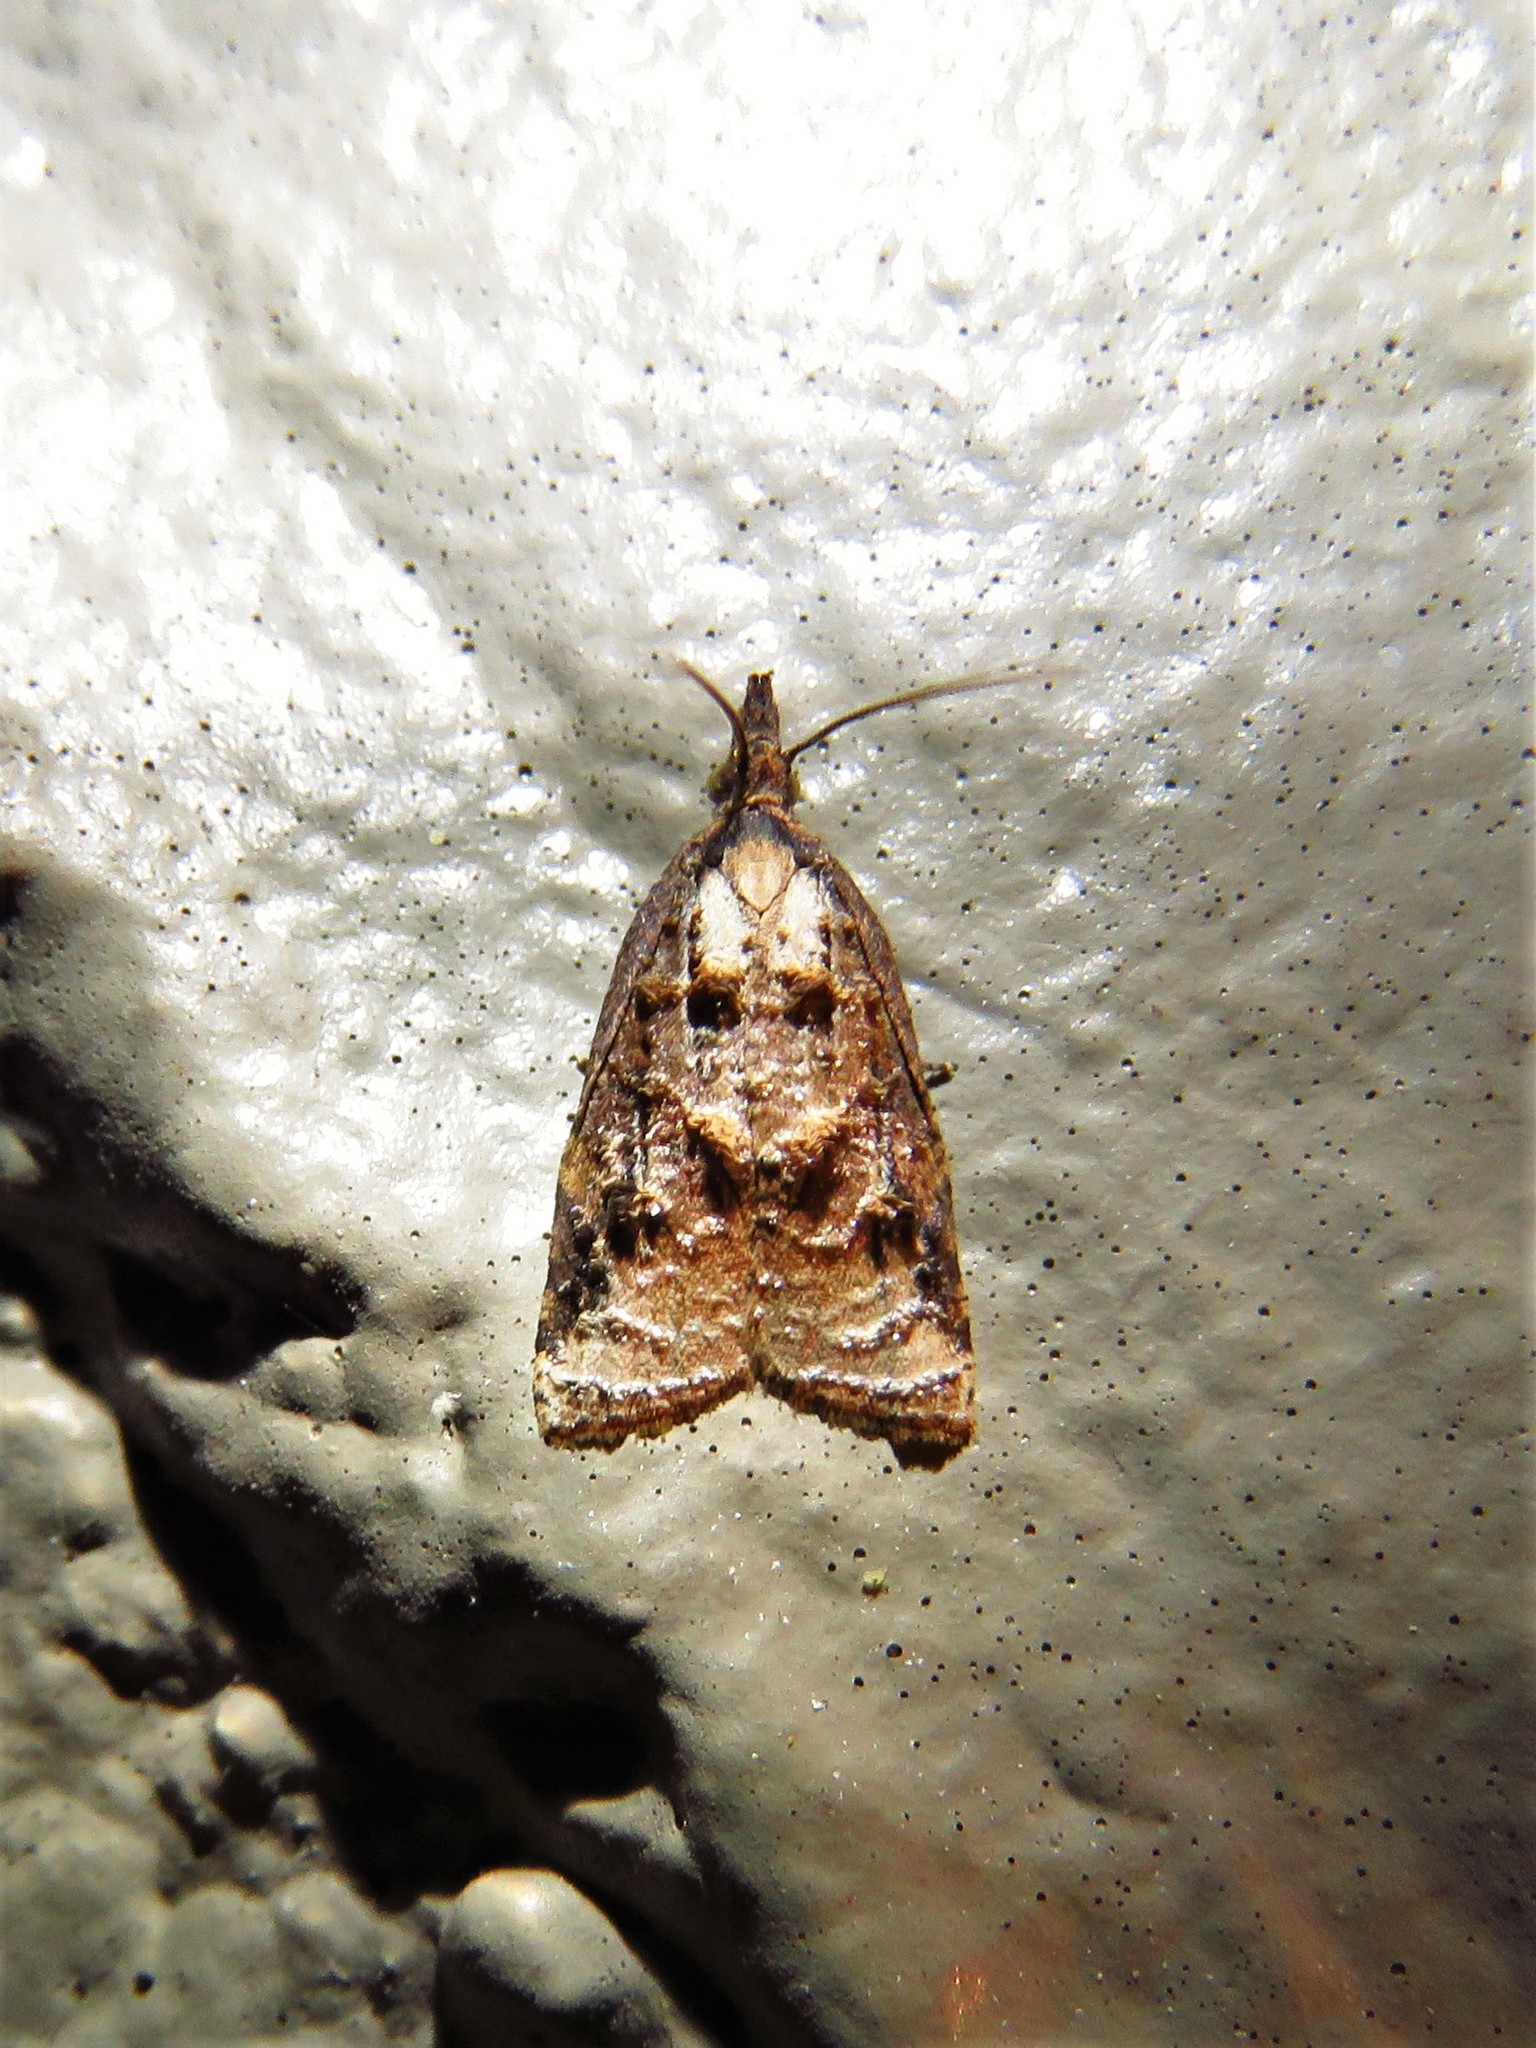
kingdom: Animalia
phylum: Arthropoda
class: Insecta
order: Lepidoptera
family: Tortricidae
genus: Platynota
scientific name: Platynota rostrana
